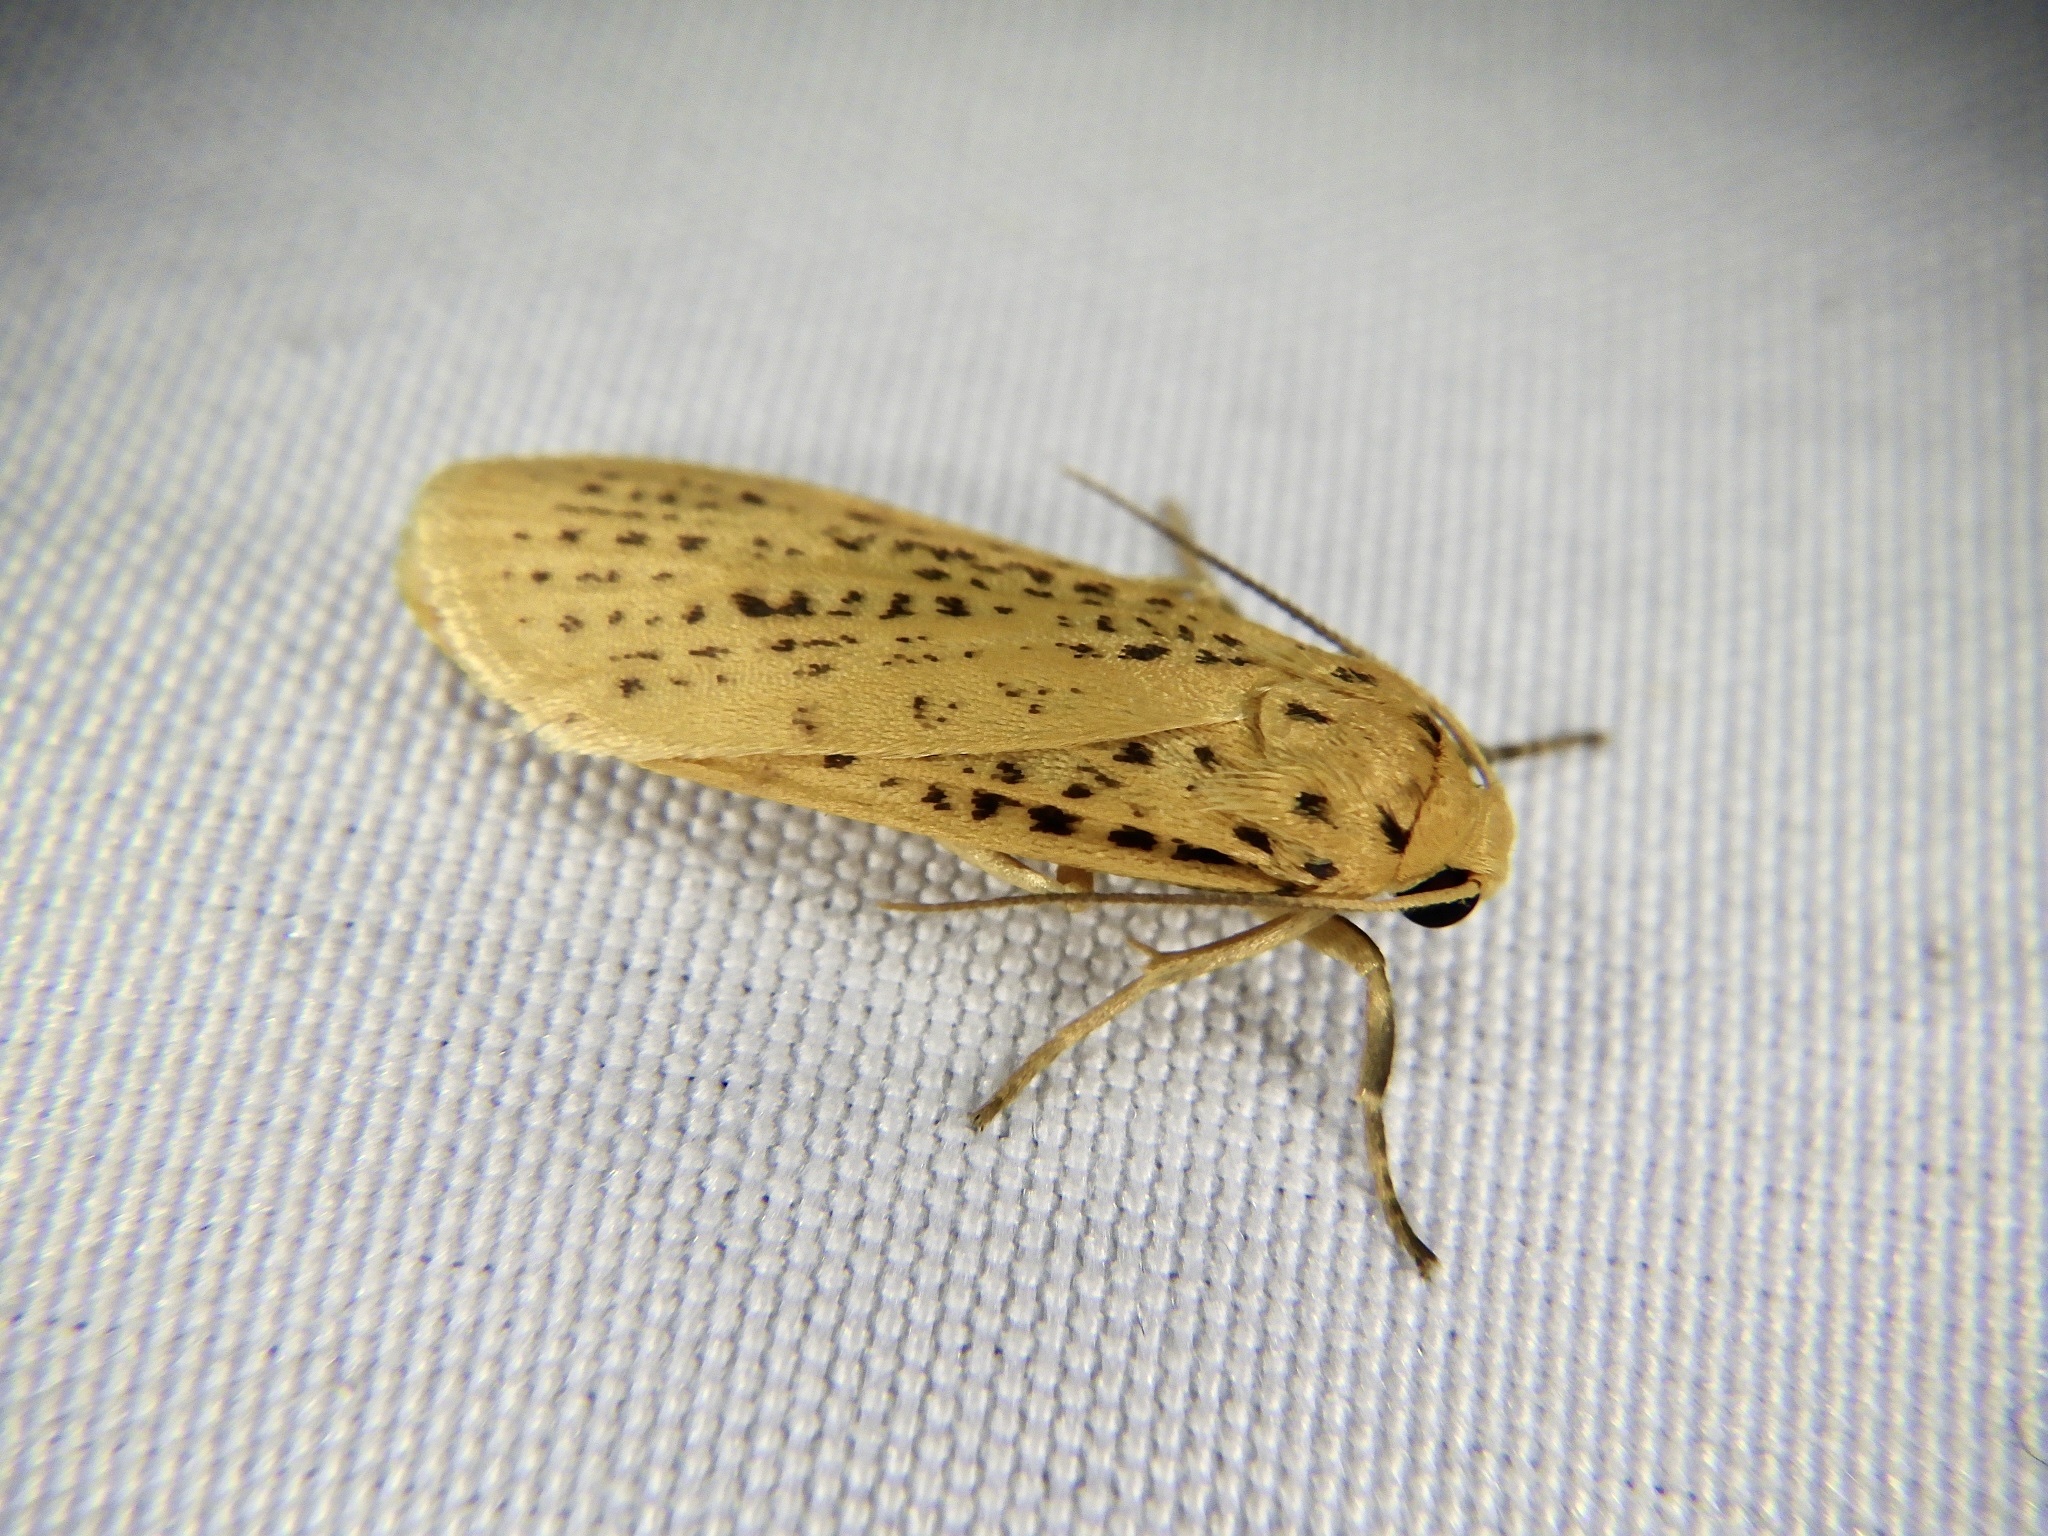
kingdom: Animalia
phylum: Arthropoda
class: Insecta
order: Lepidoptera
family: Erebidae
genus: Dolgoma
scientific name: Dolgoma cribrata
